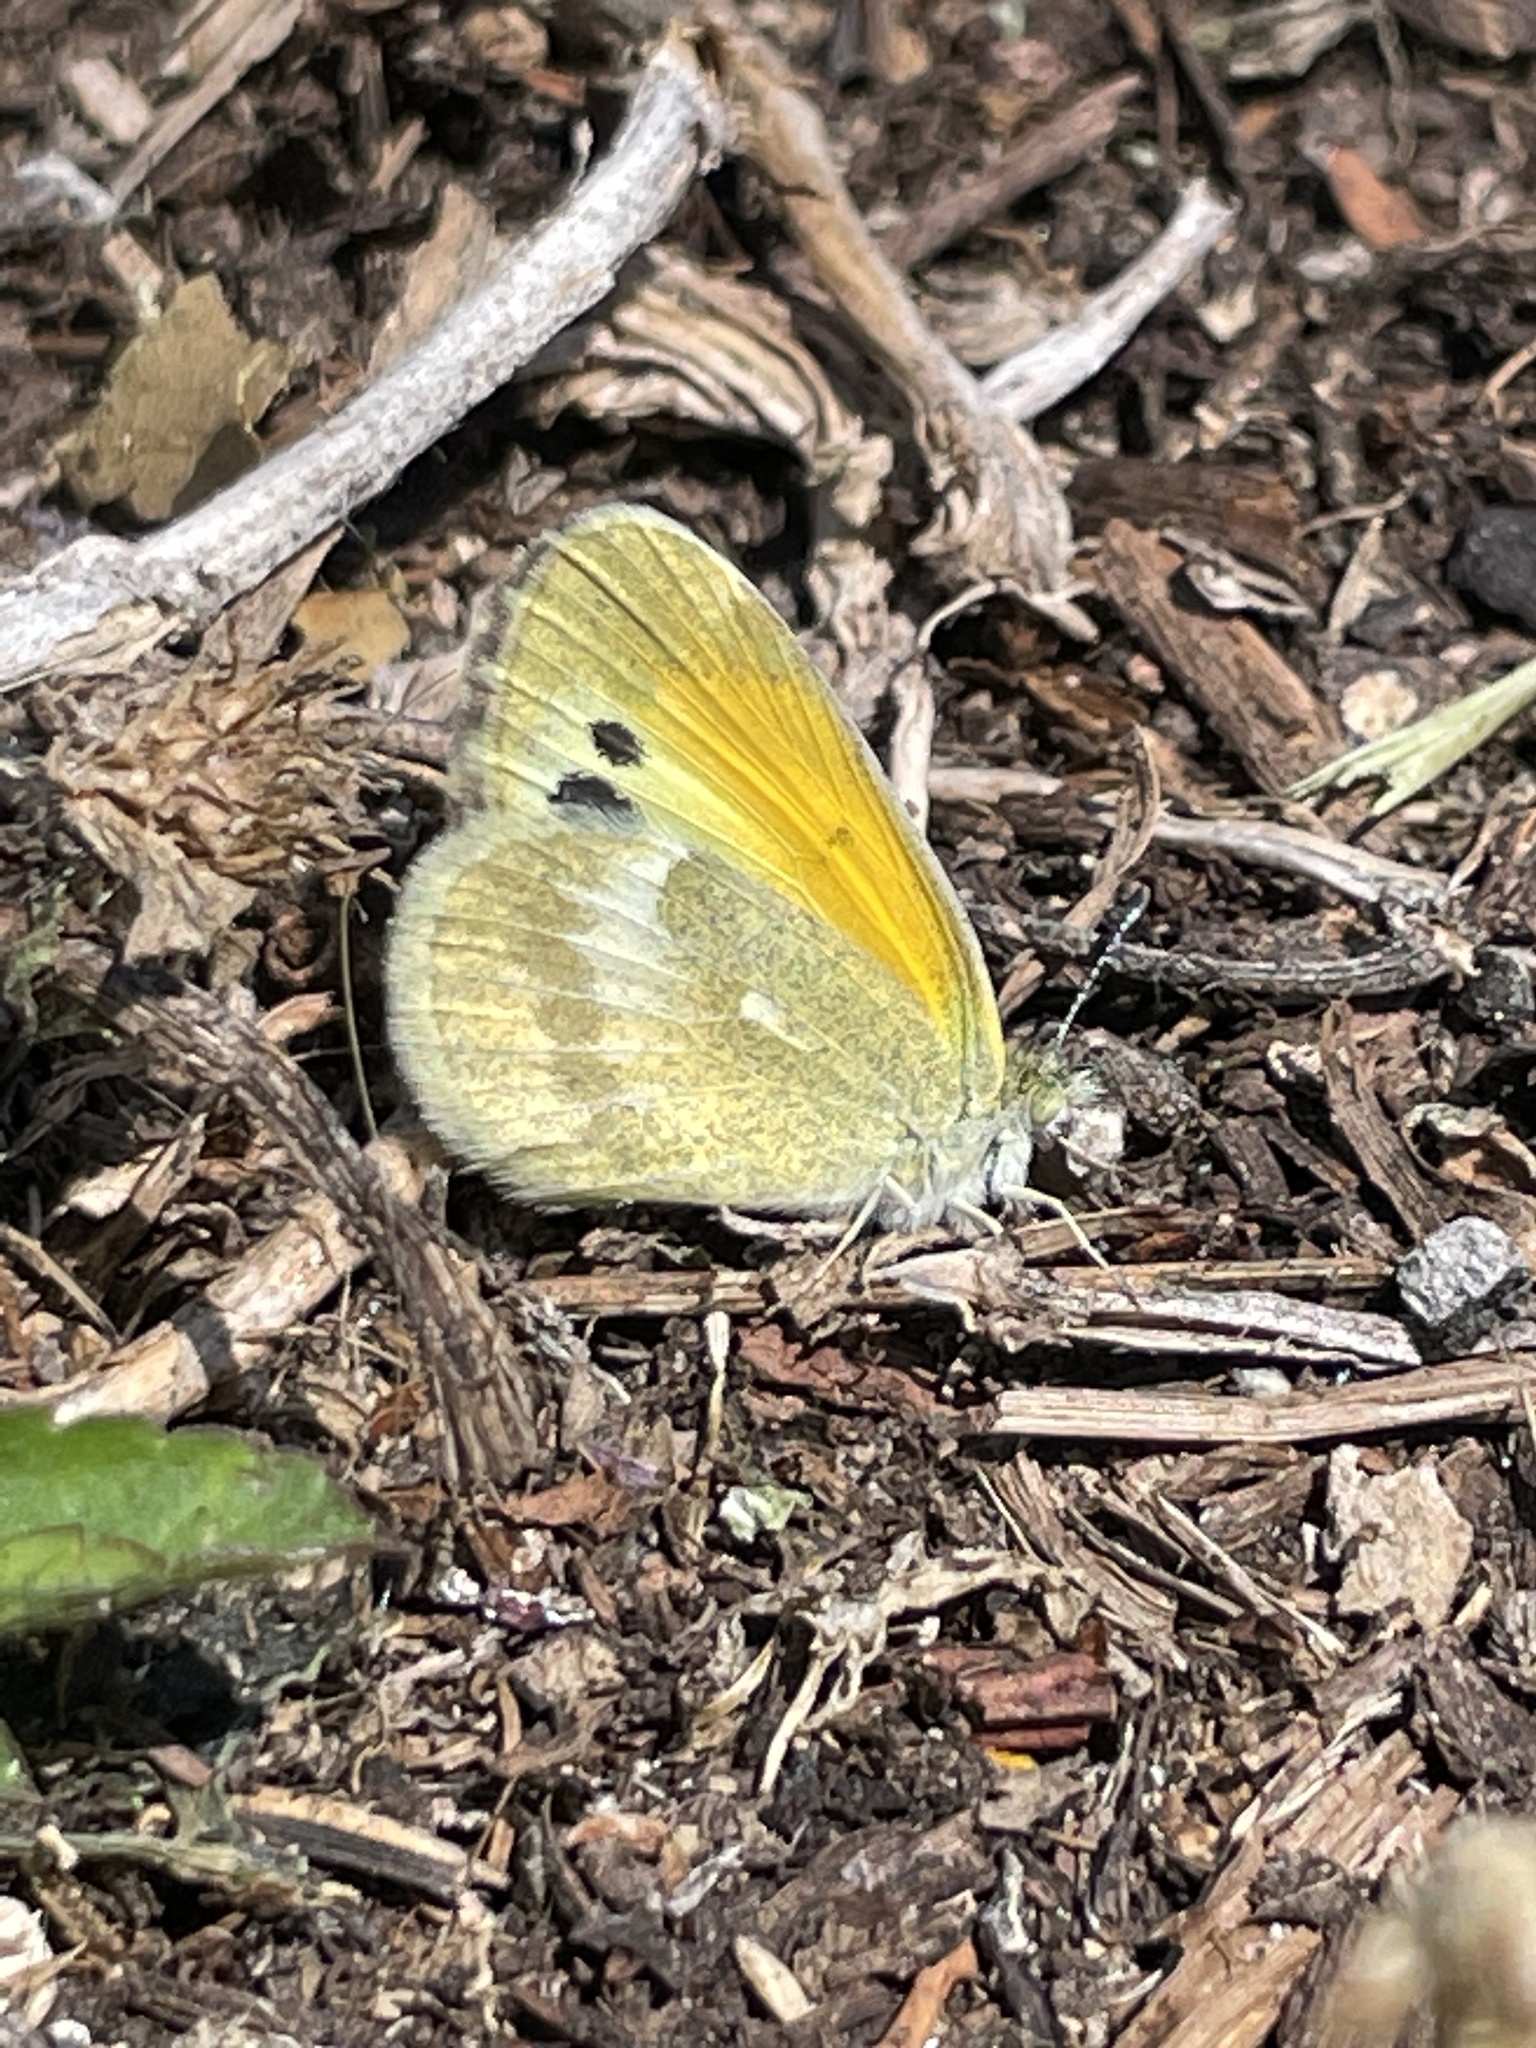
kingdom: Animalia
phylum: Arthropoda
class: Insecta
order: Lepidoptera
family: Pieridae
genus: Nathalis
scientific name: Nathalis iole
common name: Dainty sulphur
